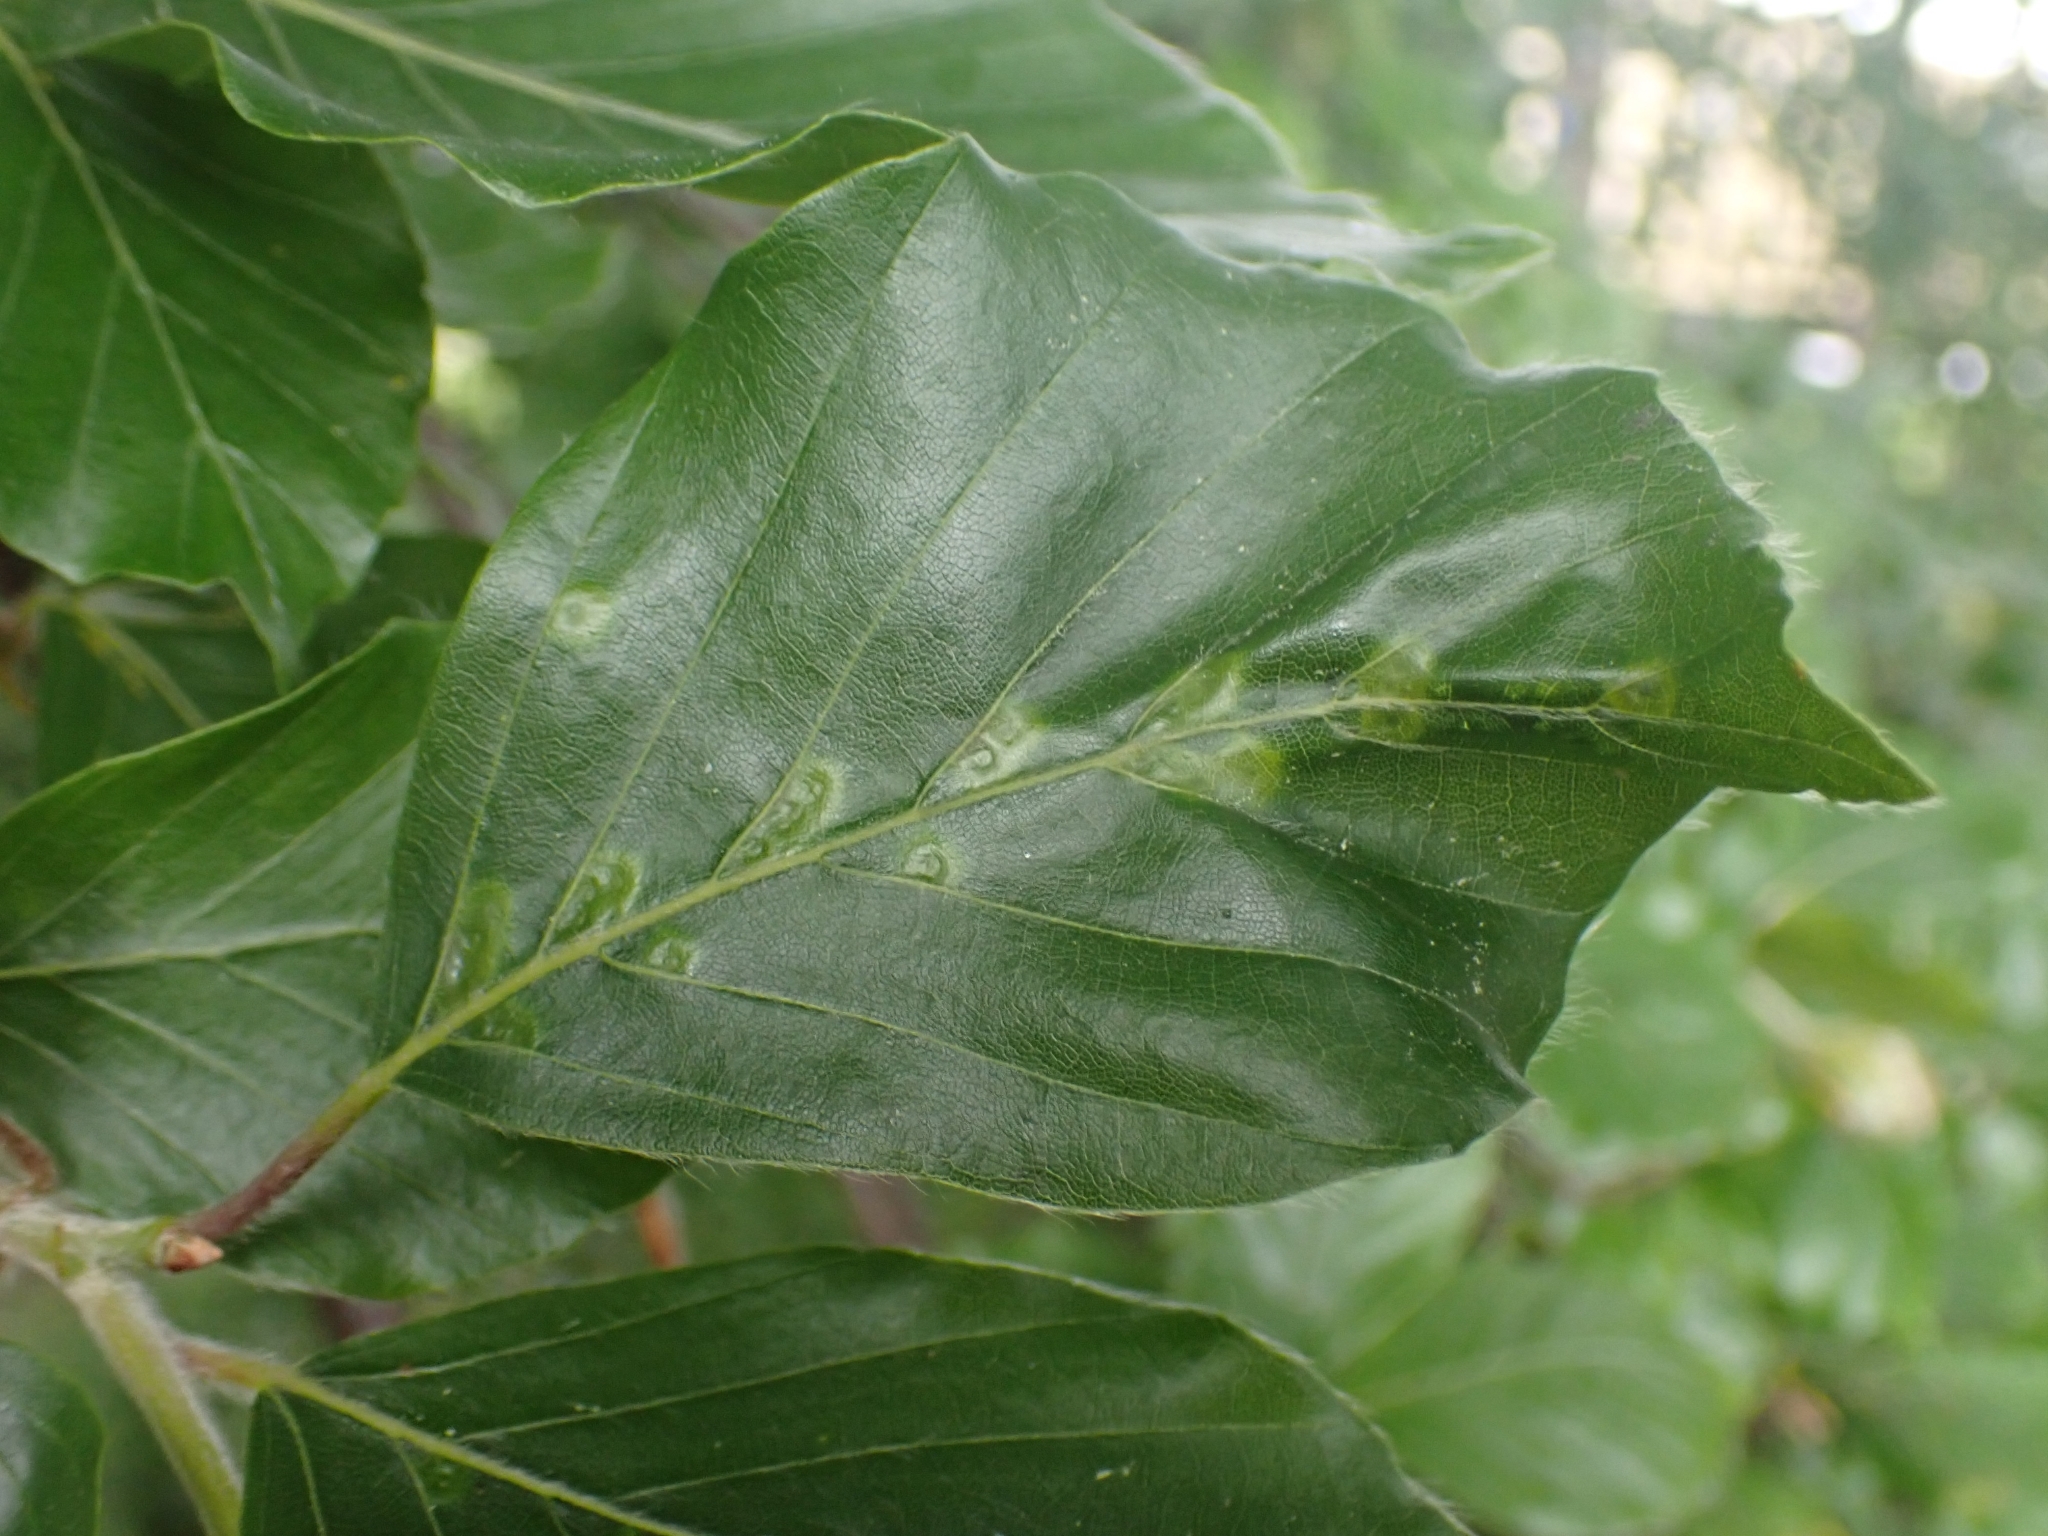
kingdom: Animalia
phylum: Arthropoda
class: Insecta
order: Diptera
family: Cecidomyiidae
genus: Hartigiola
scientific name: Hartigiola annulipes
